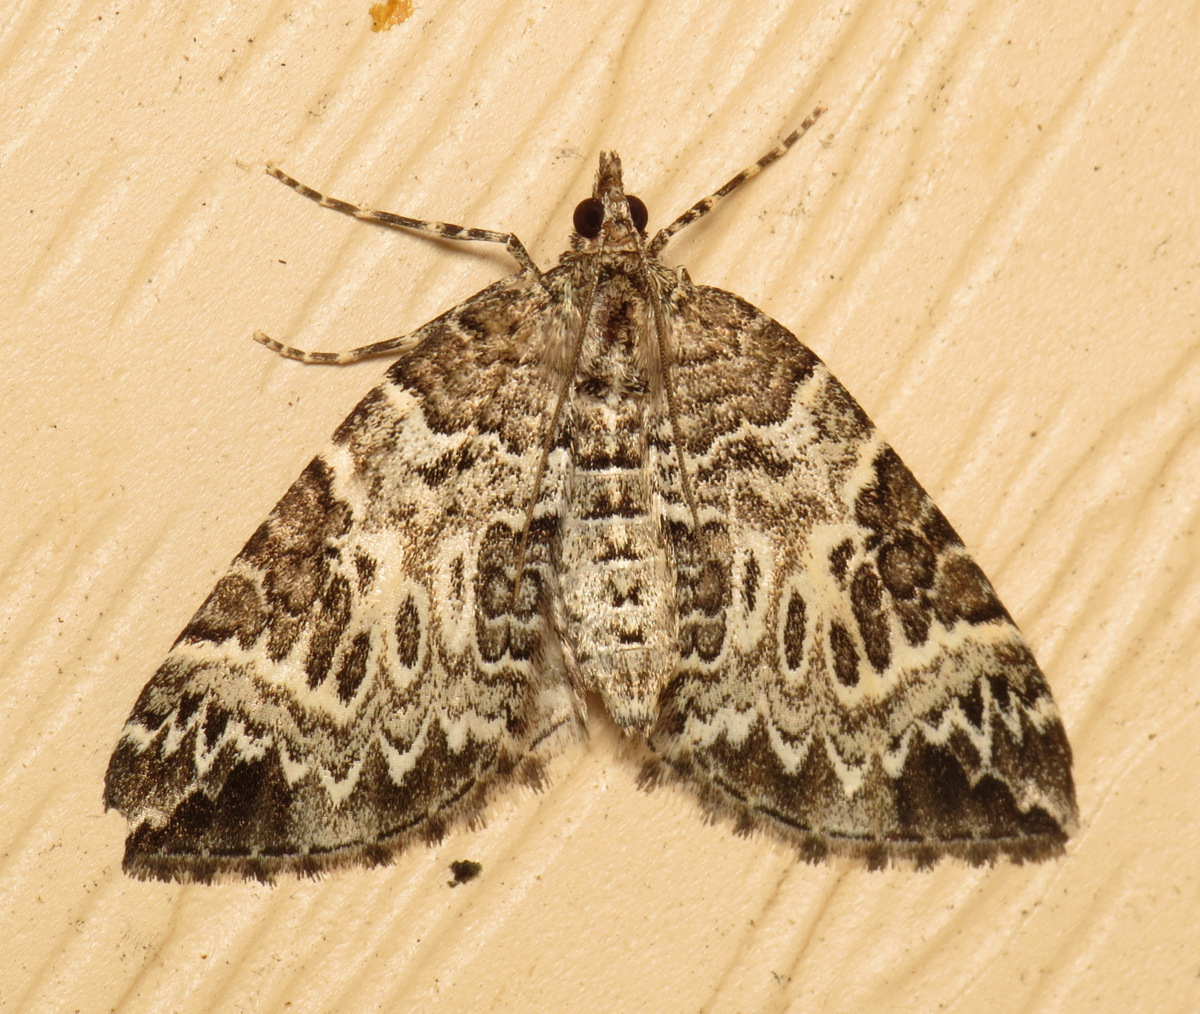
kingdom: Animalia
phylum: Arthropoda
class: Insecta
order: Lepidoptera
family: Geometridae
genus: Eulithis
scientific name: Eulithis explanata
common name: White eulithis
